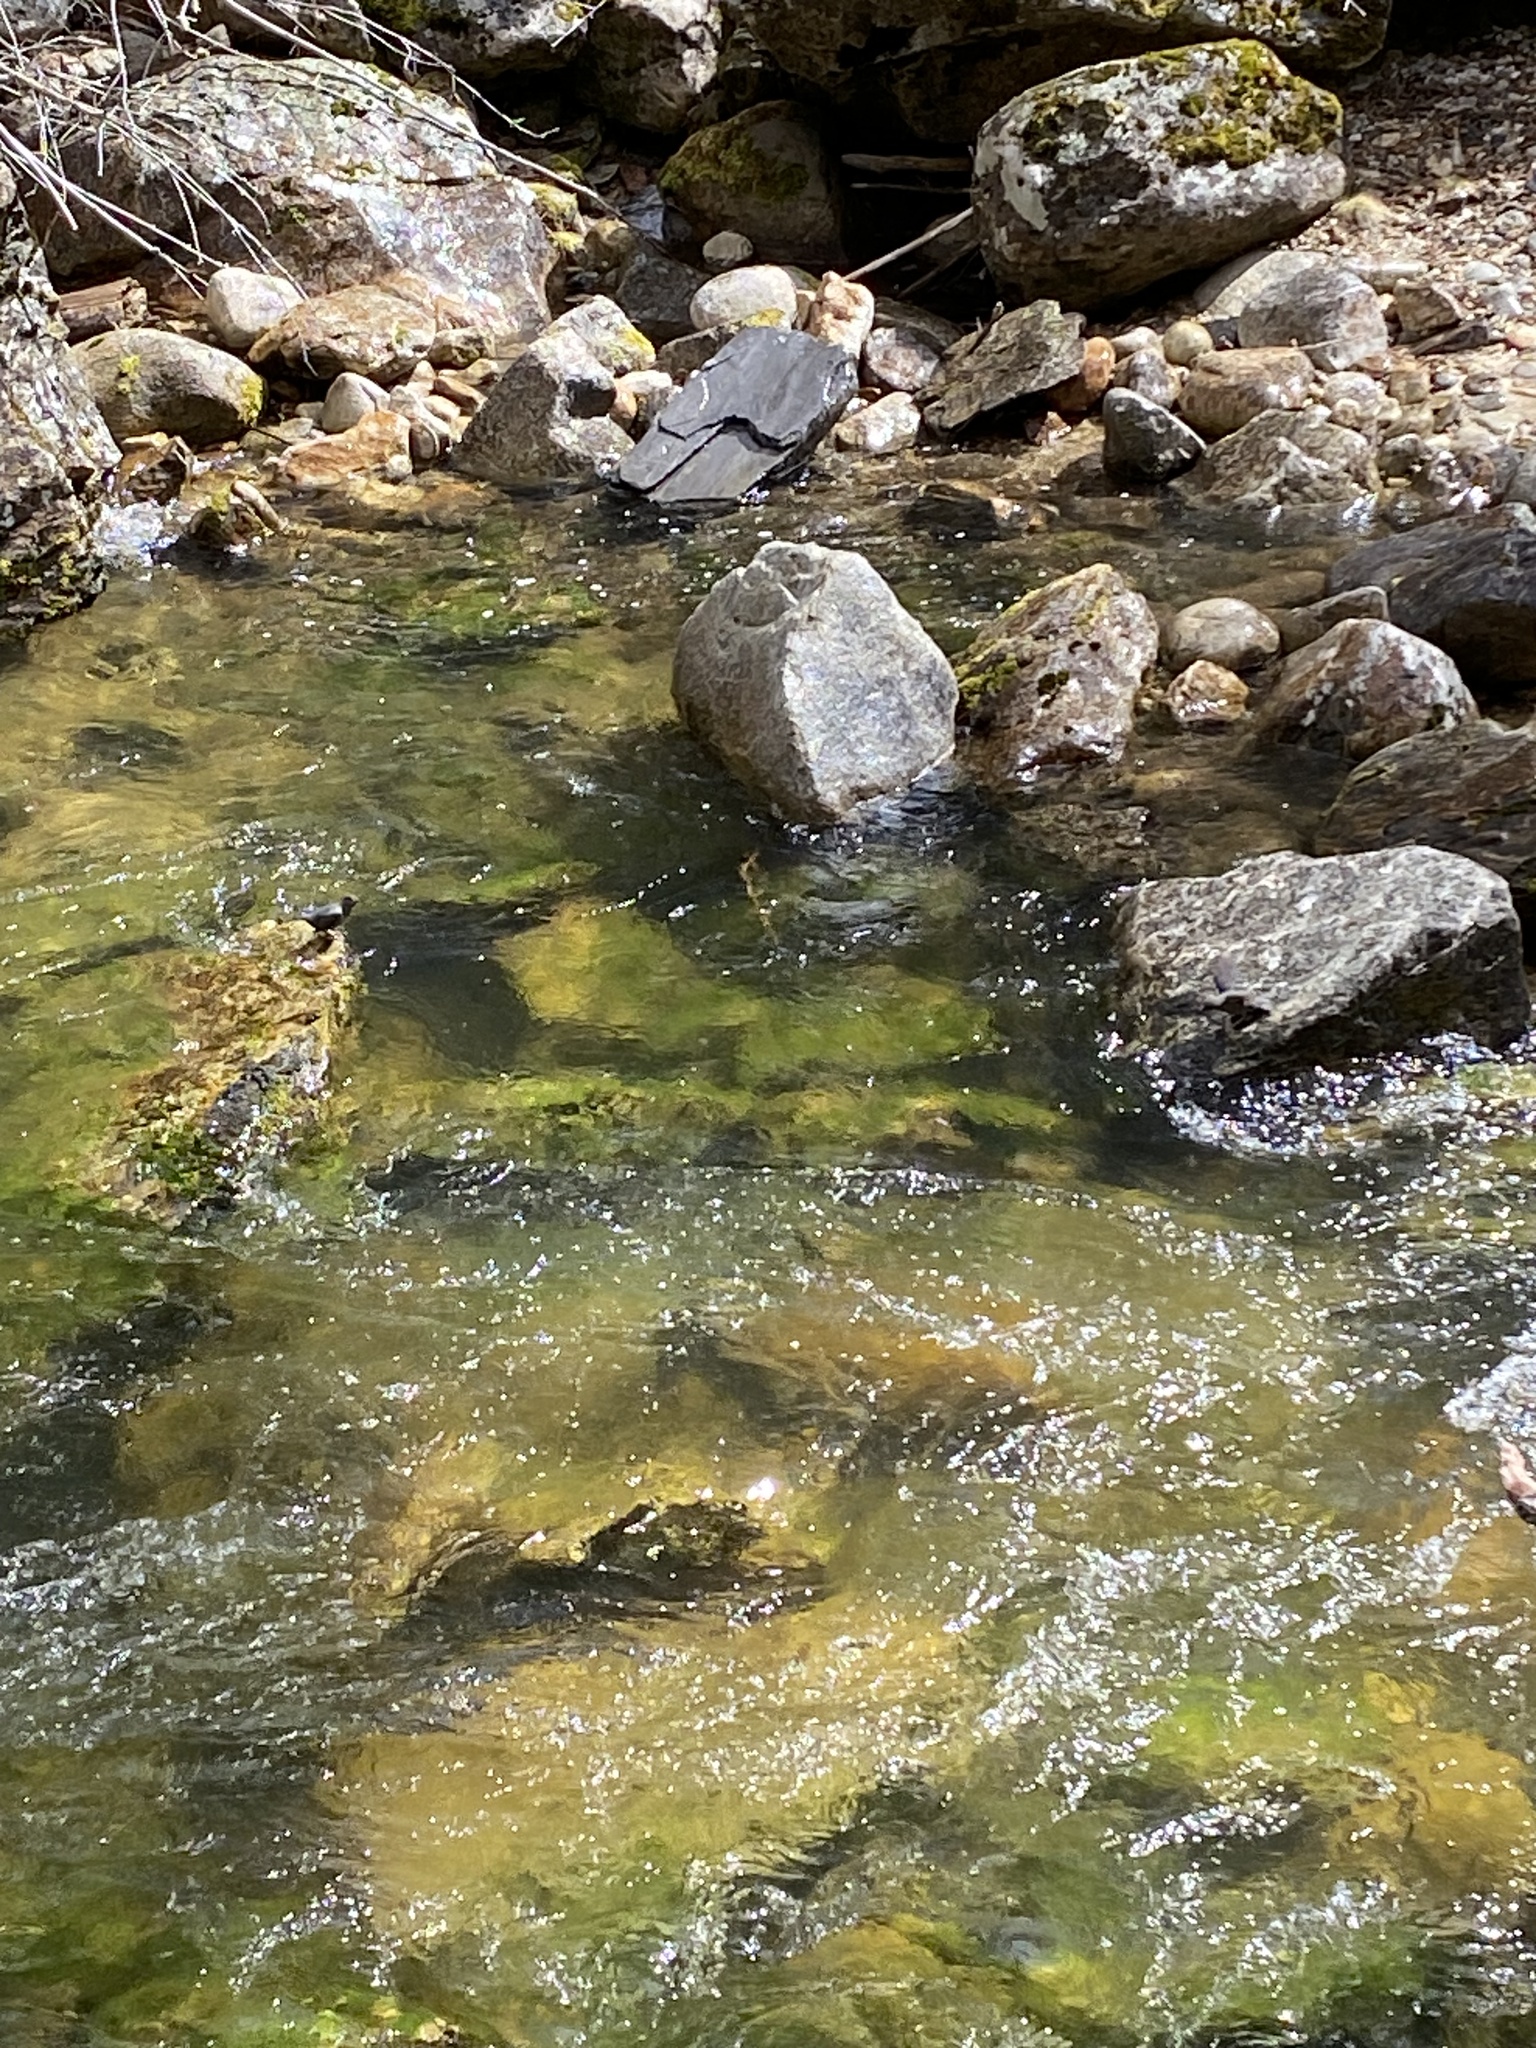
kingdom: Animalia
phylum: Chordata
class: Aves
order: Passeriformes
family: Cinclidae
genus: Cinclus
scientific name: Cinclus mexicanus
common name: American dipper
